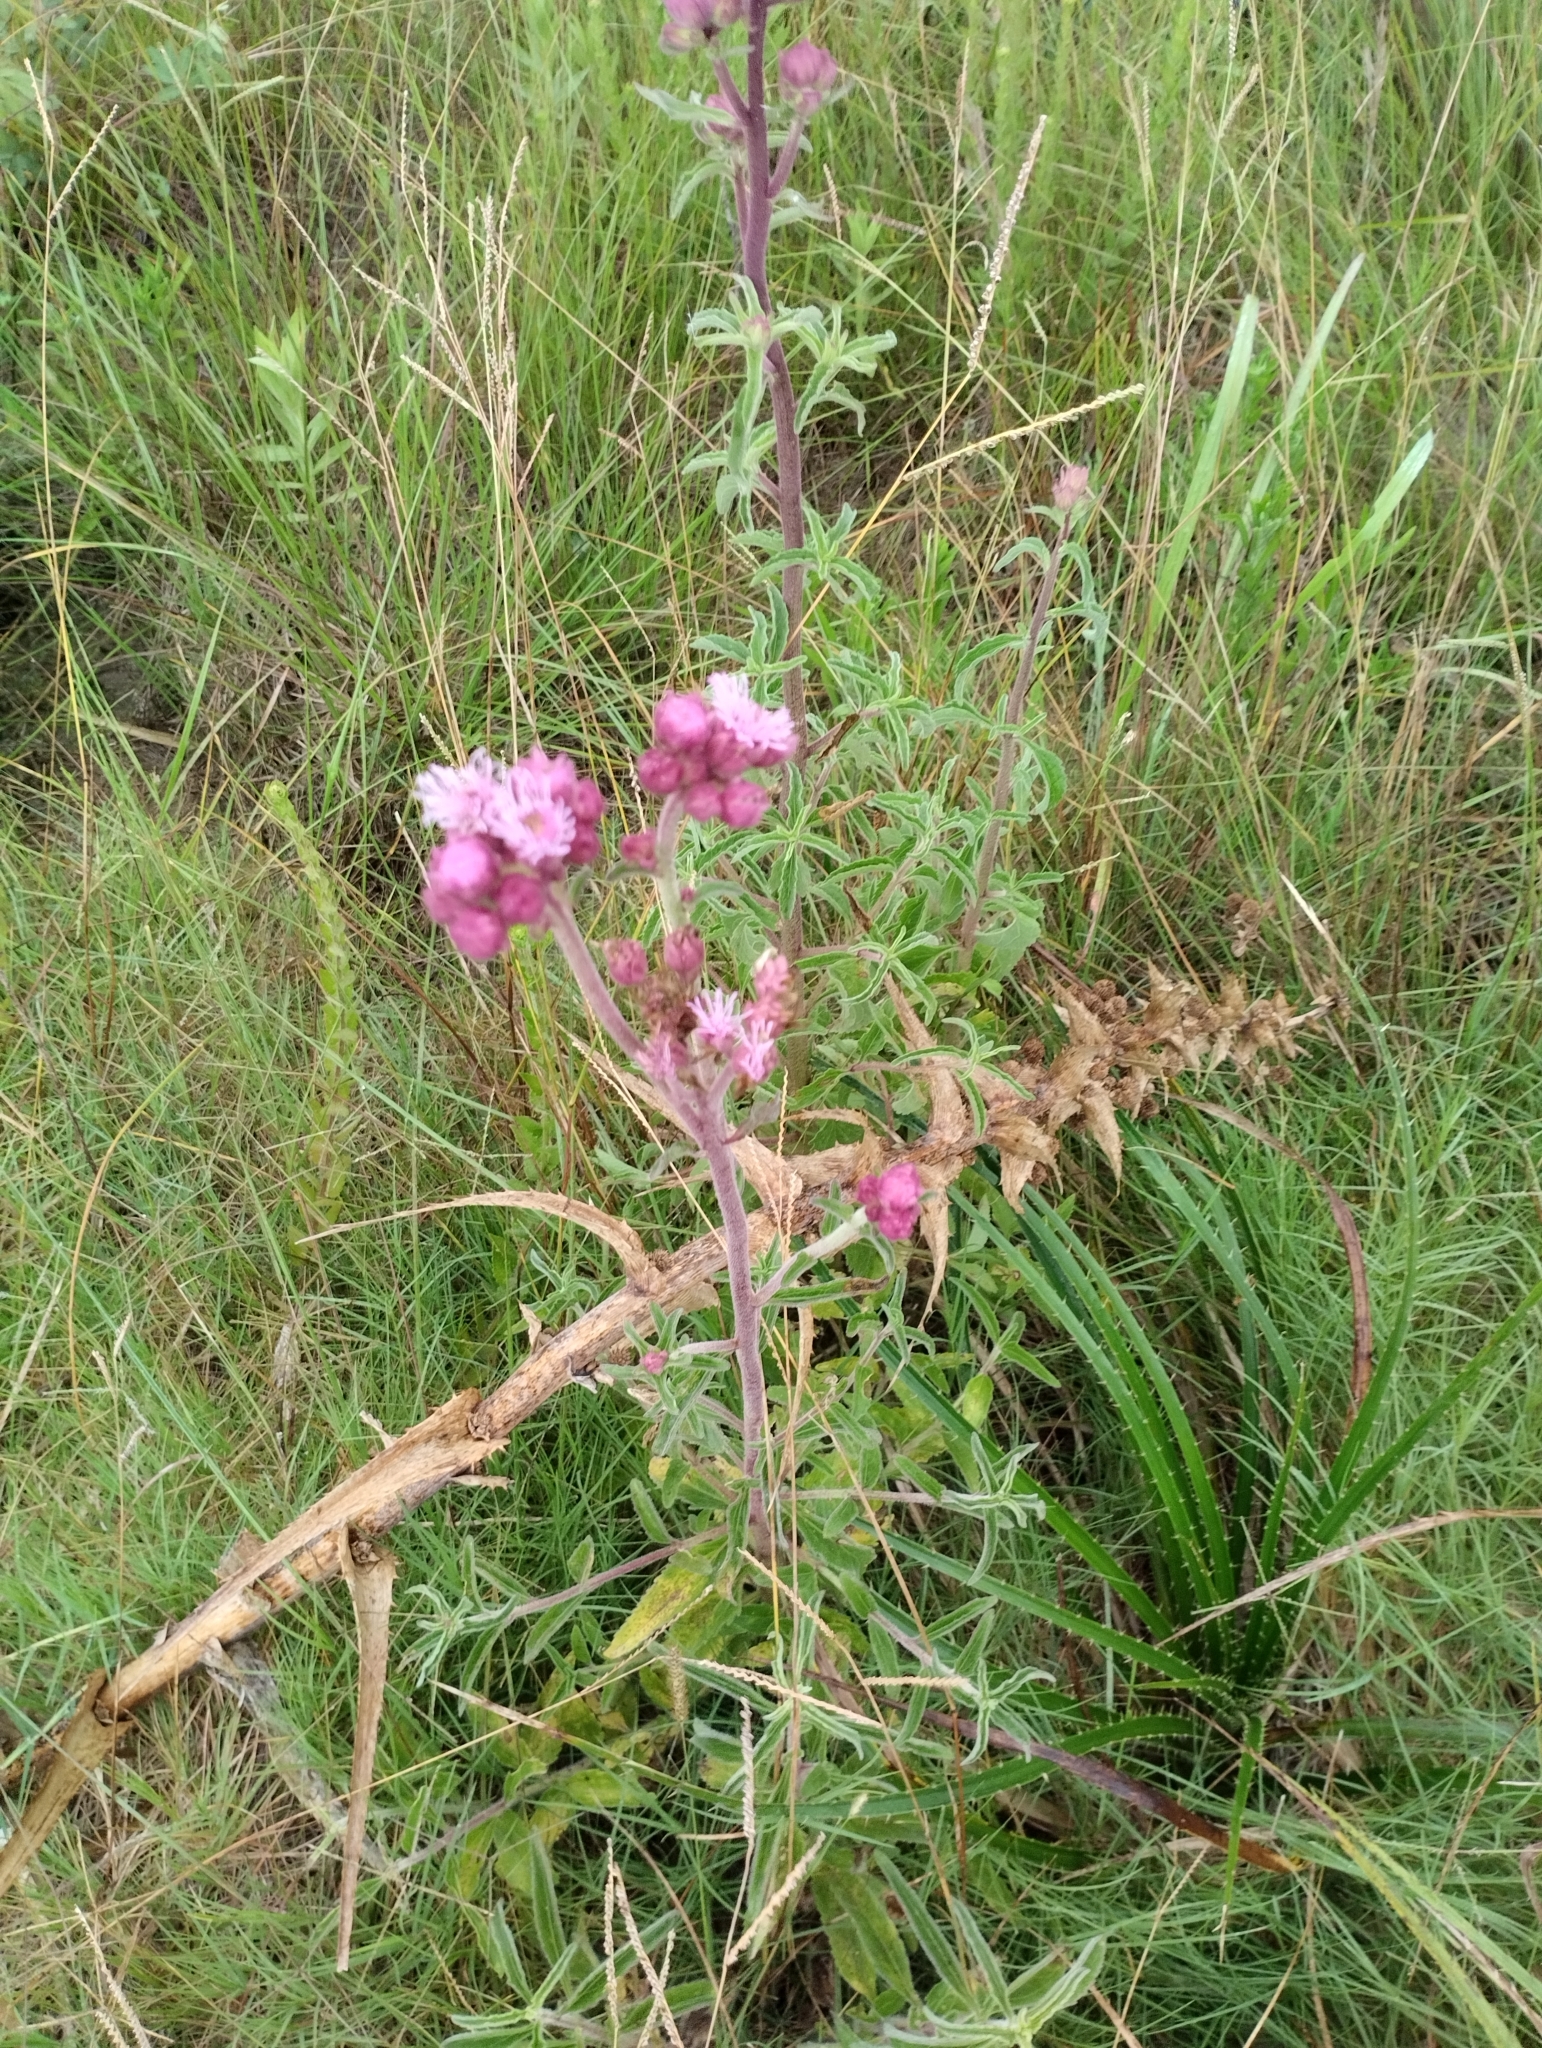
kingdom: Plantae
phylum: Tracheophyta
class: Magnoliopsida
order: Asterales
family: Asteraceae
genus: Campuloclinium
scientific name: Campuloclinium macrocephalum
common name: Pompomweed
